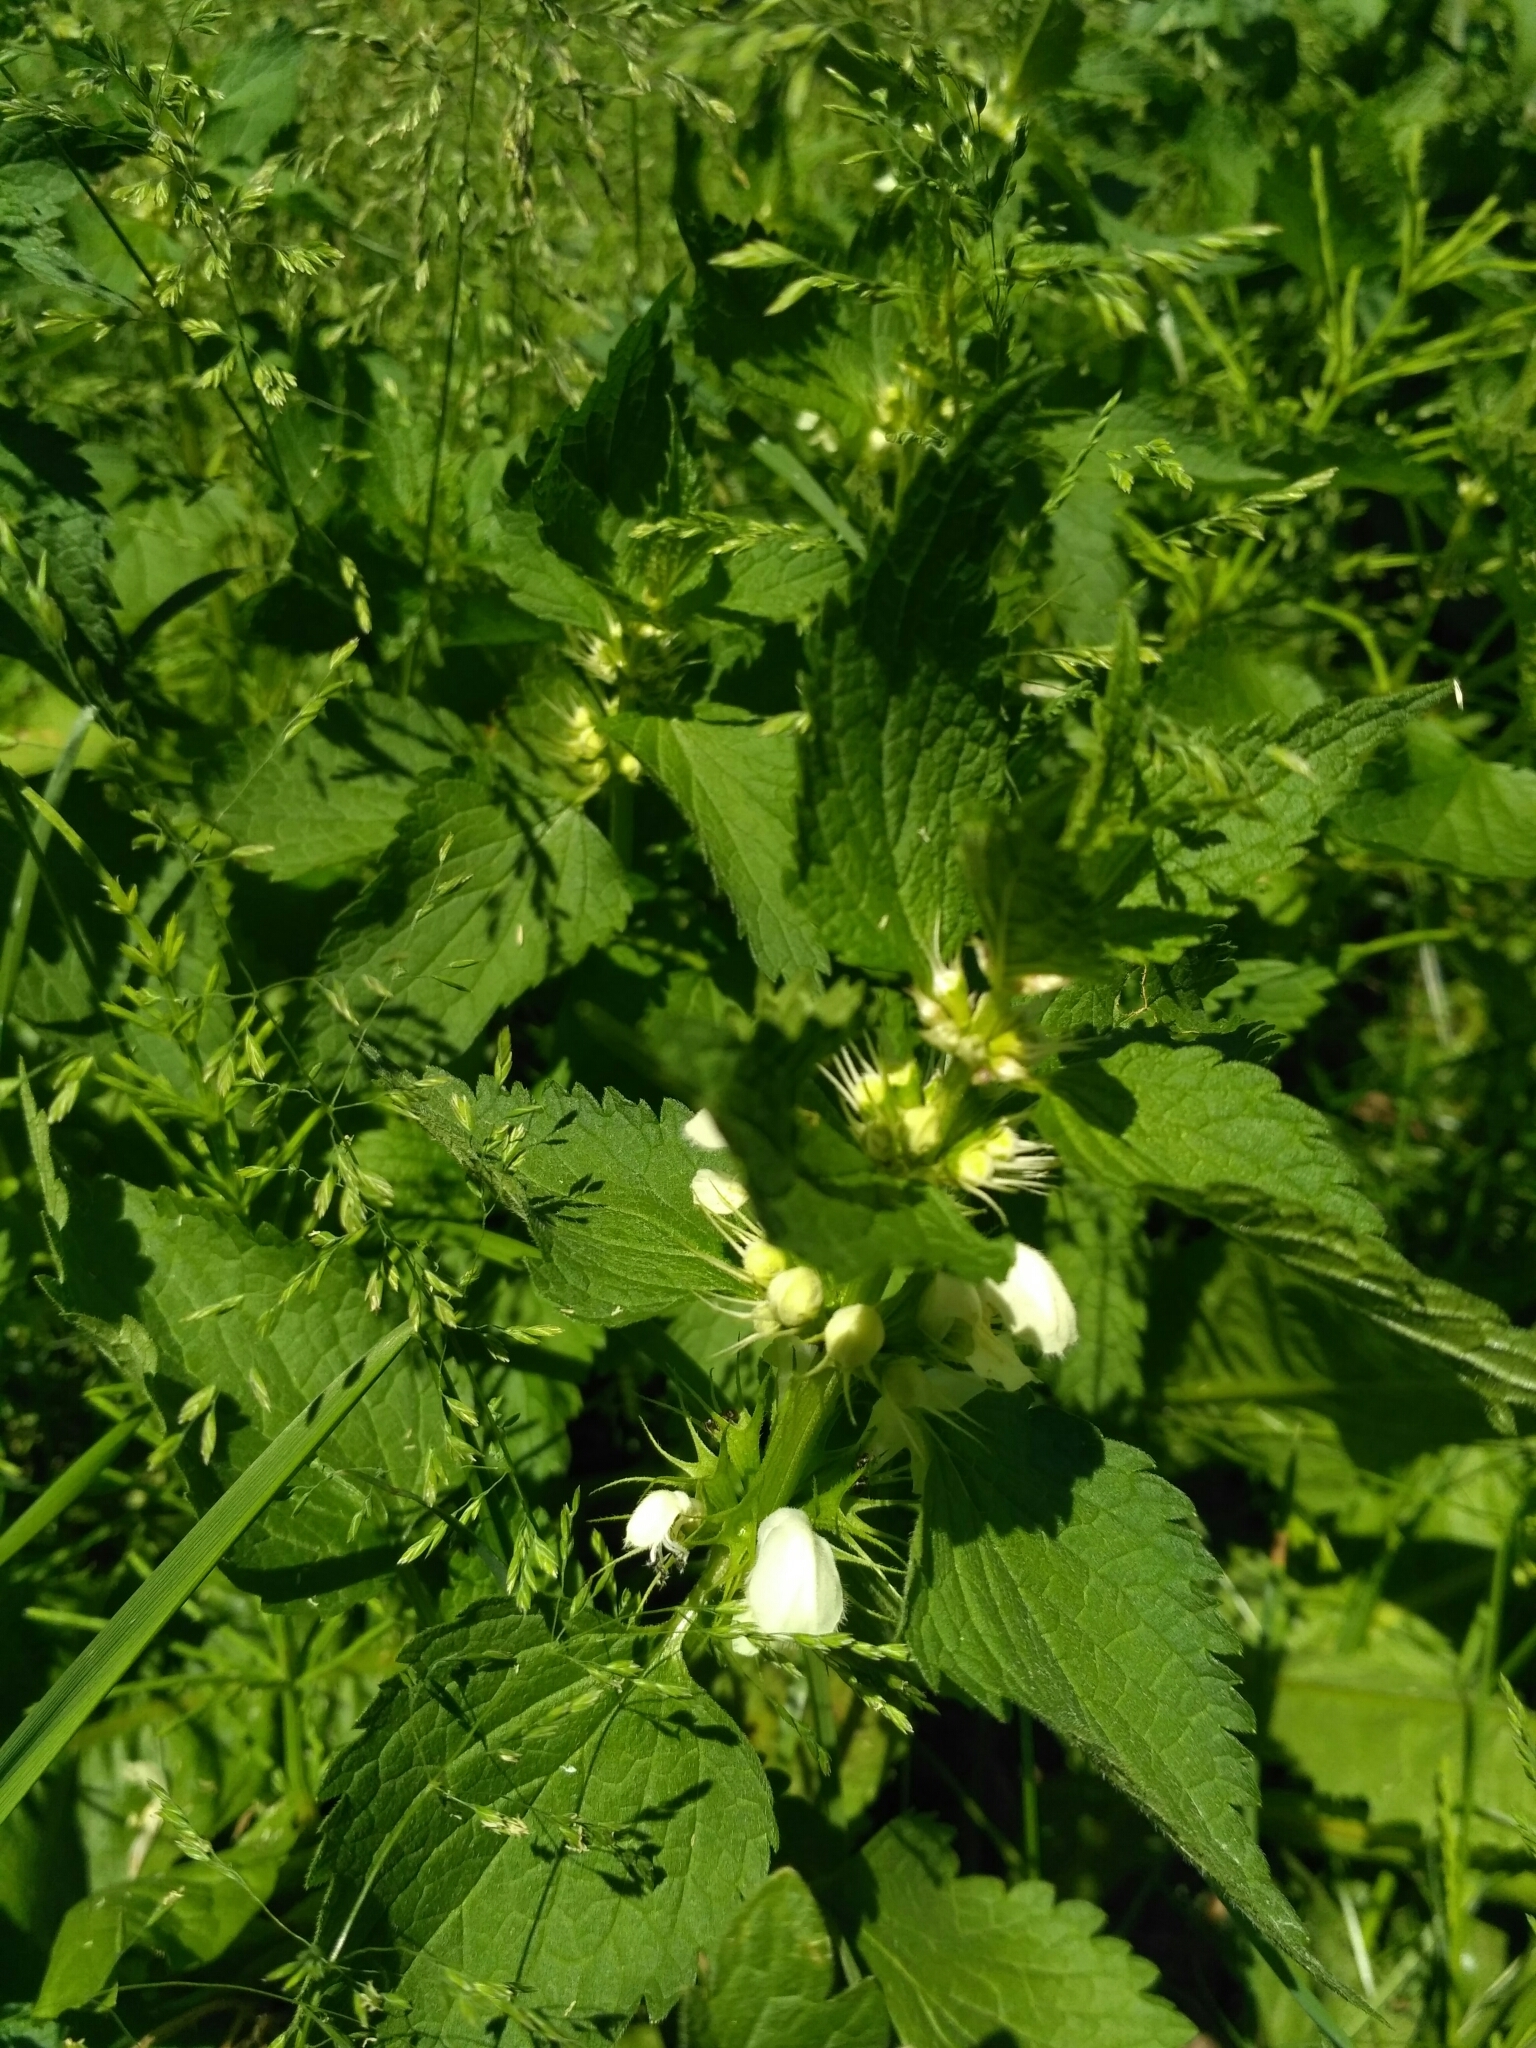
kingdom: Plantae
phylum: Tracheophyta
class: Magnoliopsida
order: Lamiales
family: Lamiaceae
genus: Lamium
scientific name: Lamium album
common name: White dead-nettle
